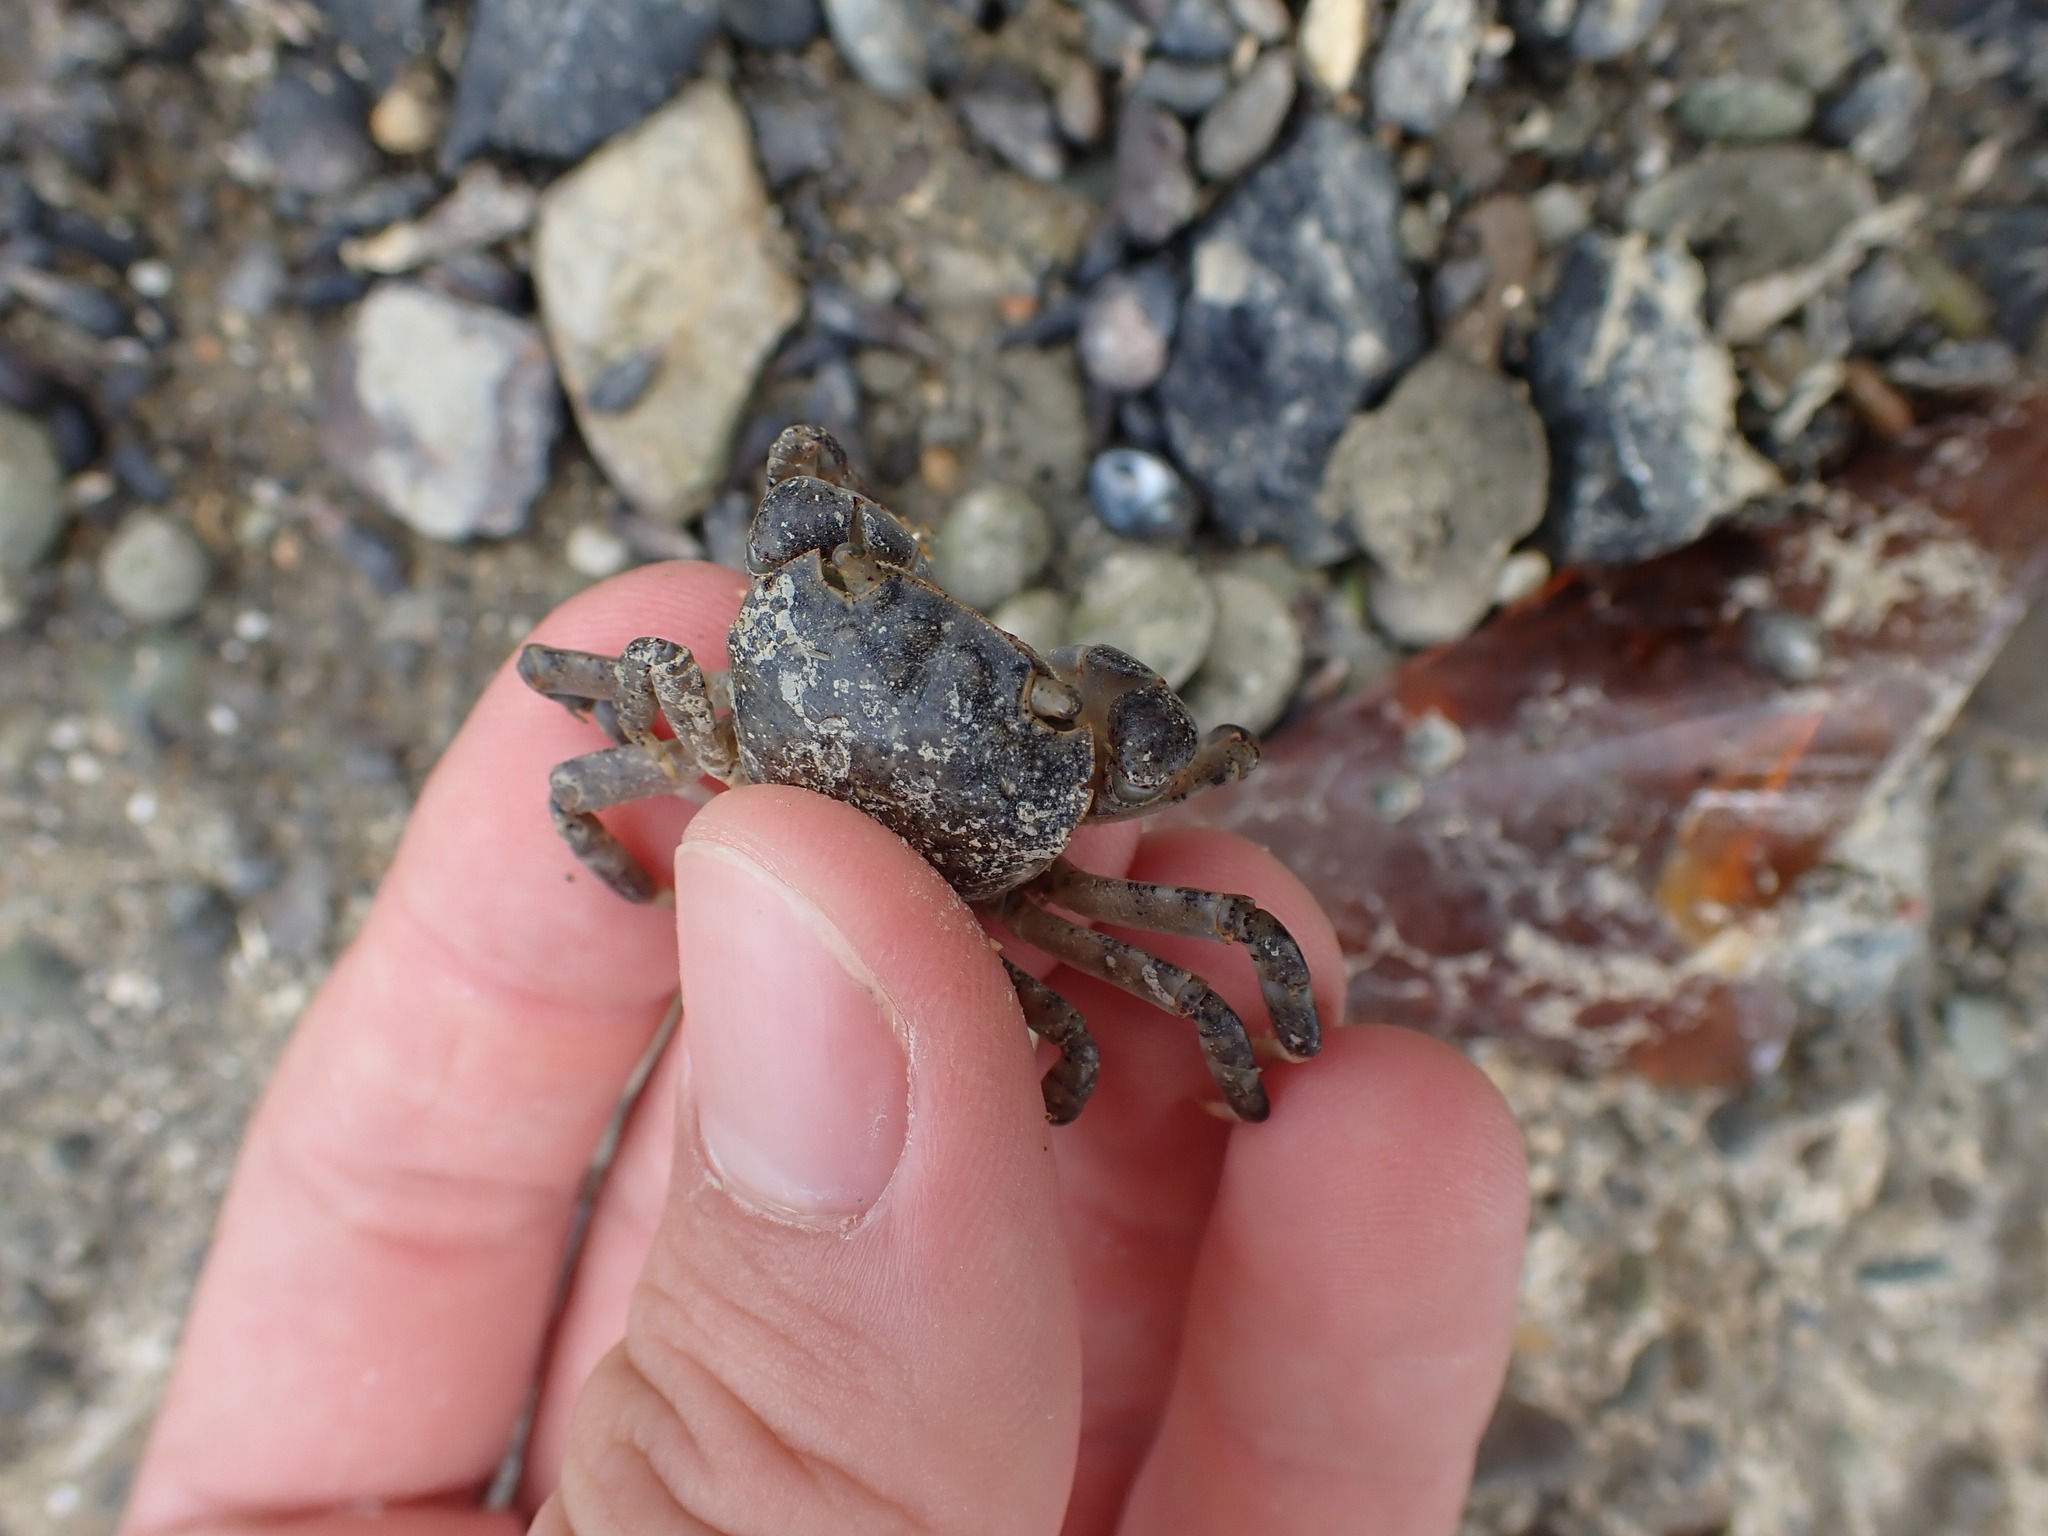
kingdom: Animalia
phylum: Arthropoda
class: Malacostraca
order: Decapoda
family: Varunidae
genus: Hemigrapsus
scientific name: Hemigrapsus sexdentatus
